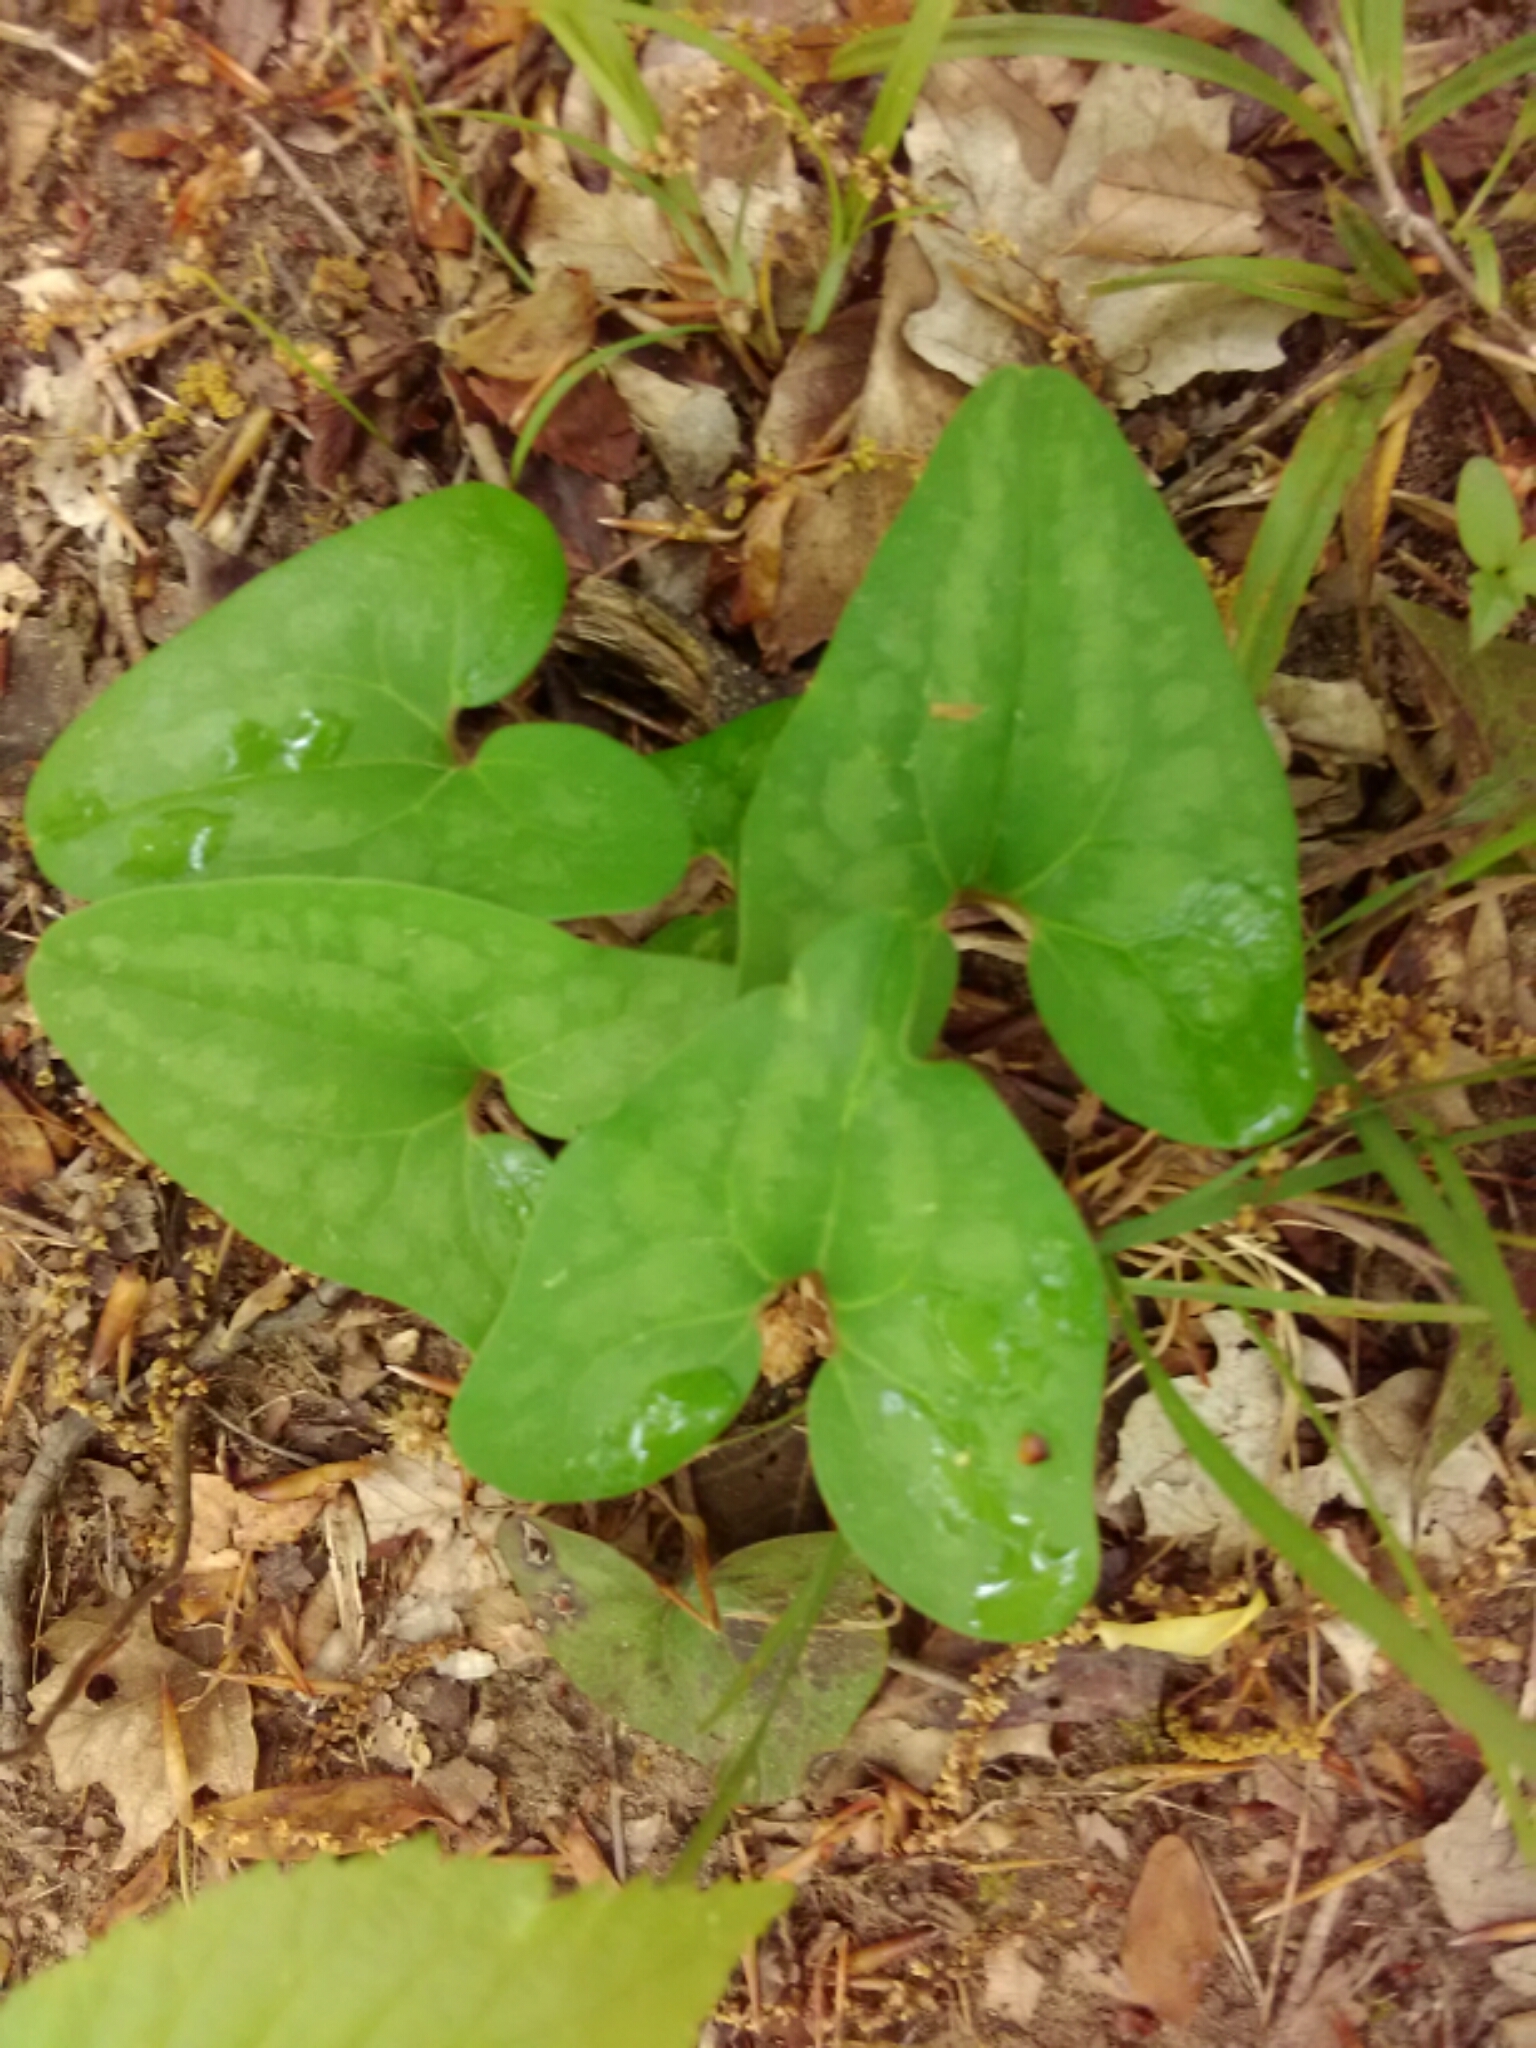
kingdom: Plantae
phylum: Tracheophyta
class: Magnoliopsida
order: Piperales
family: Aristolochiaceae
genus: Hexastylis
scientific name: Hexastylis arifolia
